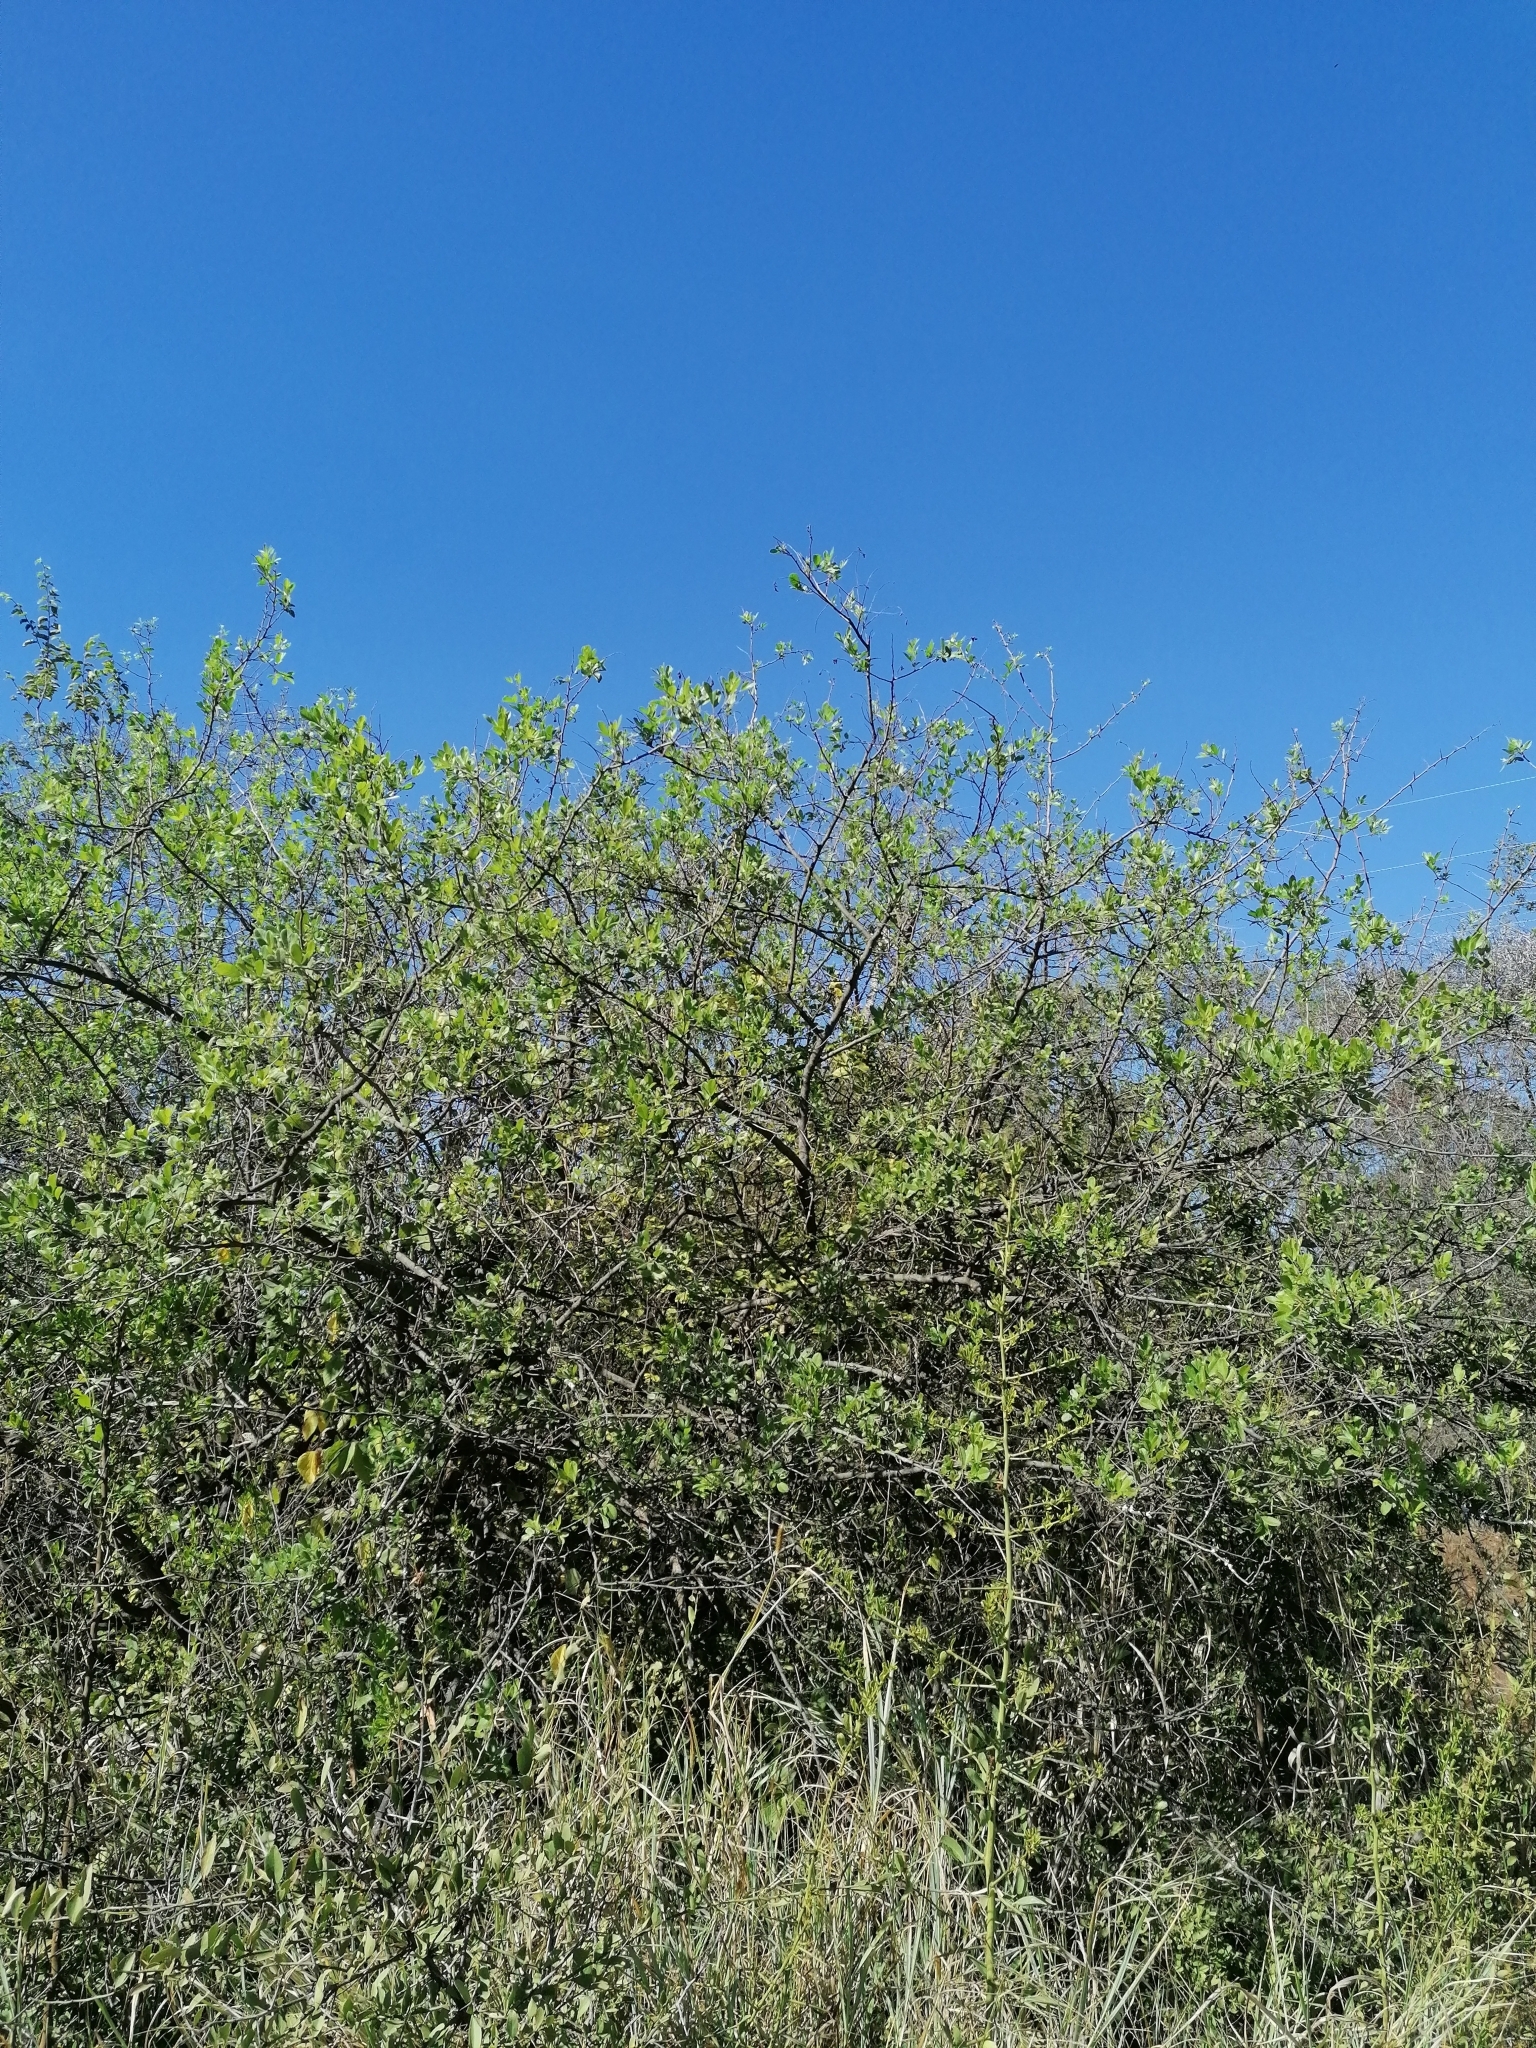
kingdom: Plantae
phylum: Tracheophyta
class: Magnoliopsida
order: Sapindales
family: Anacardiaceae
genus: Searsia
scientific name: Searsia pyroides
